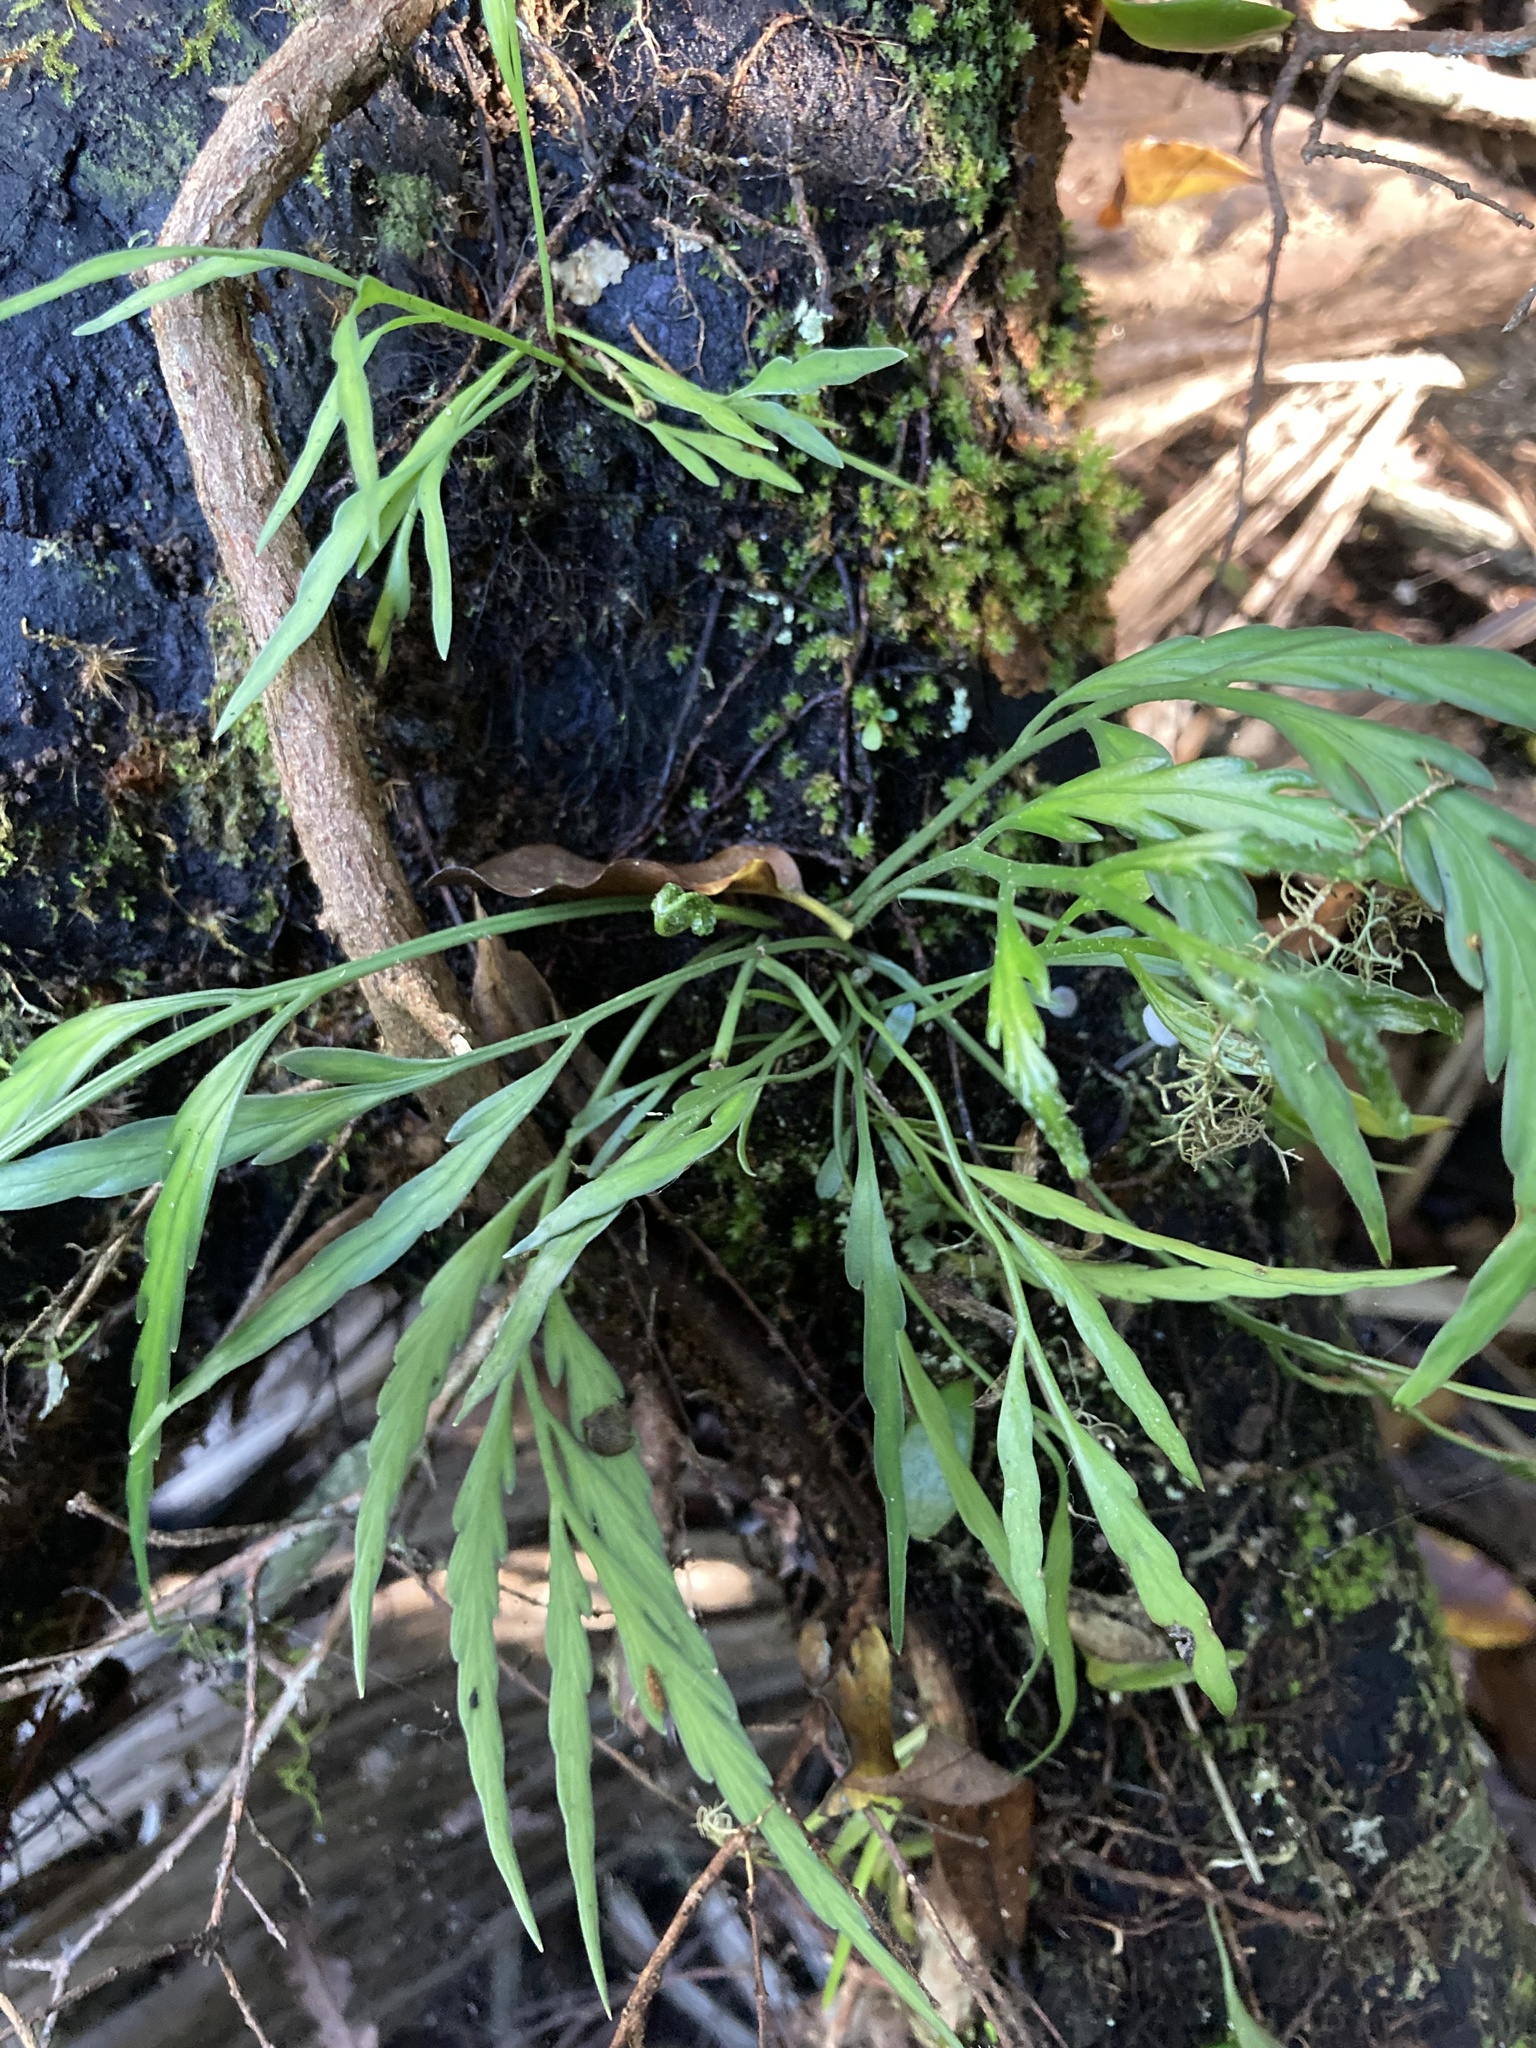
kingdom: Plantae
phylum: Tracheophyta
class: Polypodiopsida
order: Polypodiales
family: Aspleniaceae
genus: Asplenium
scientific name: Asplenium flaccidum
